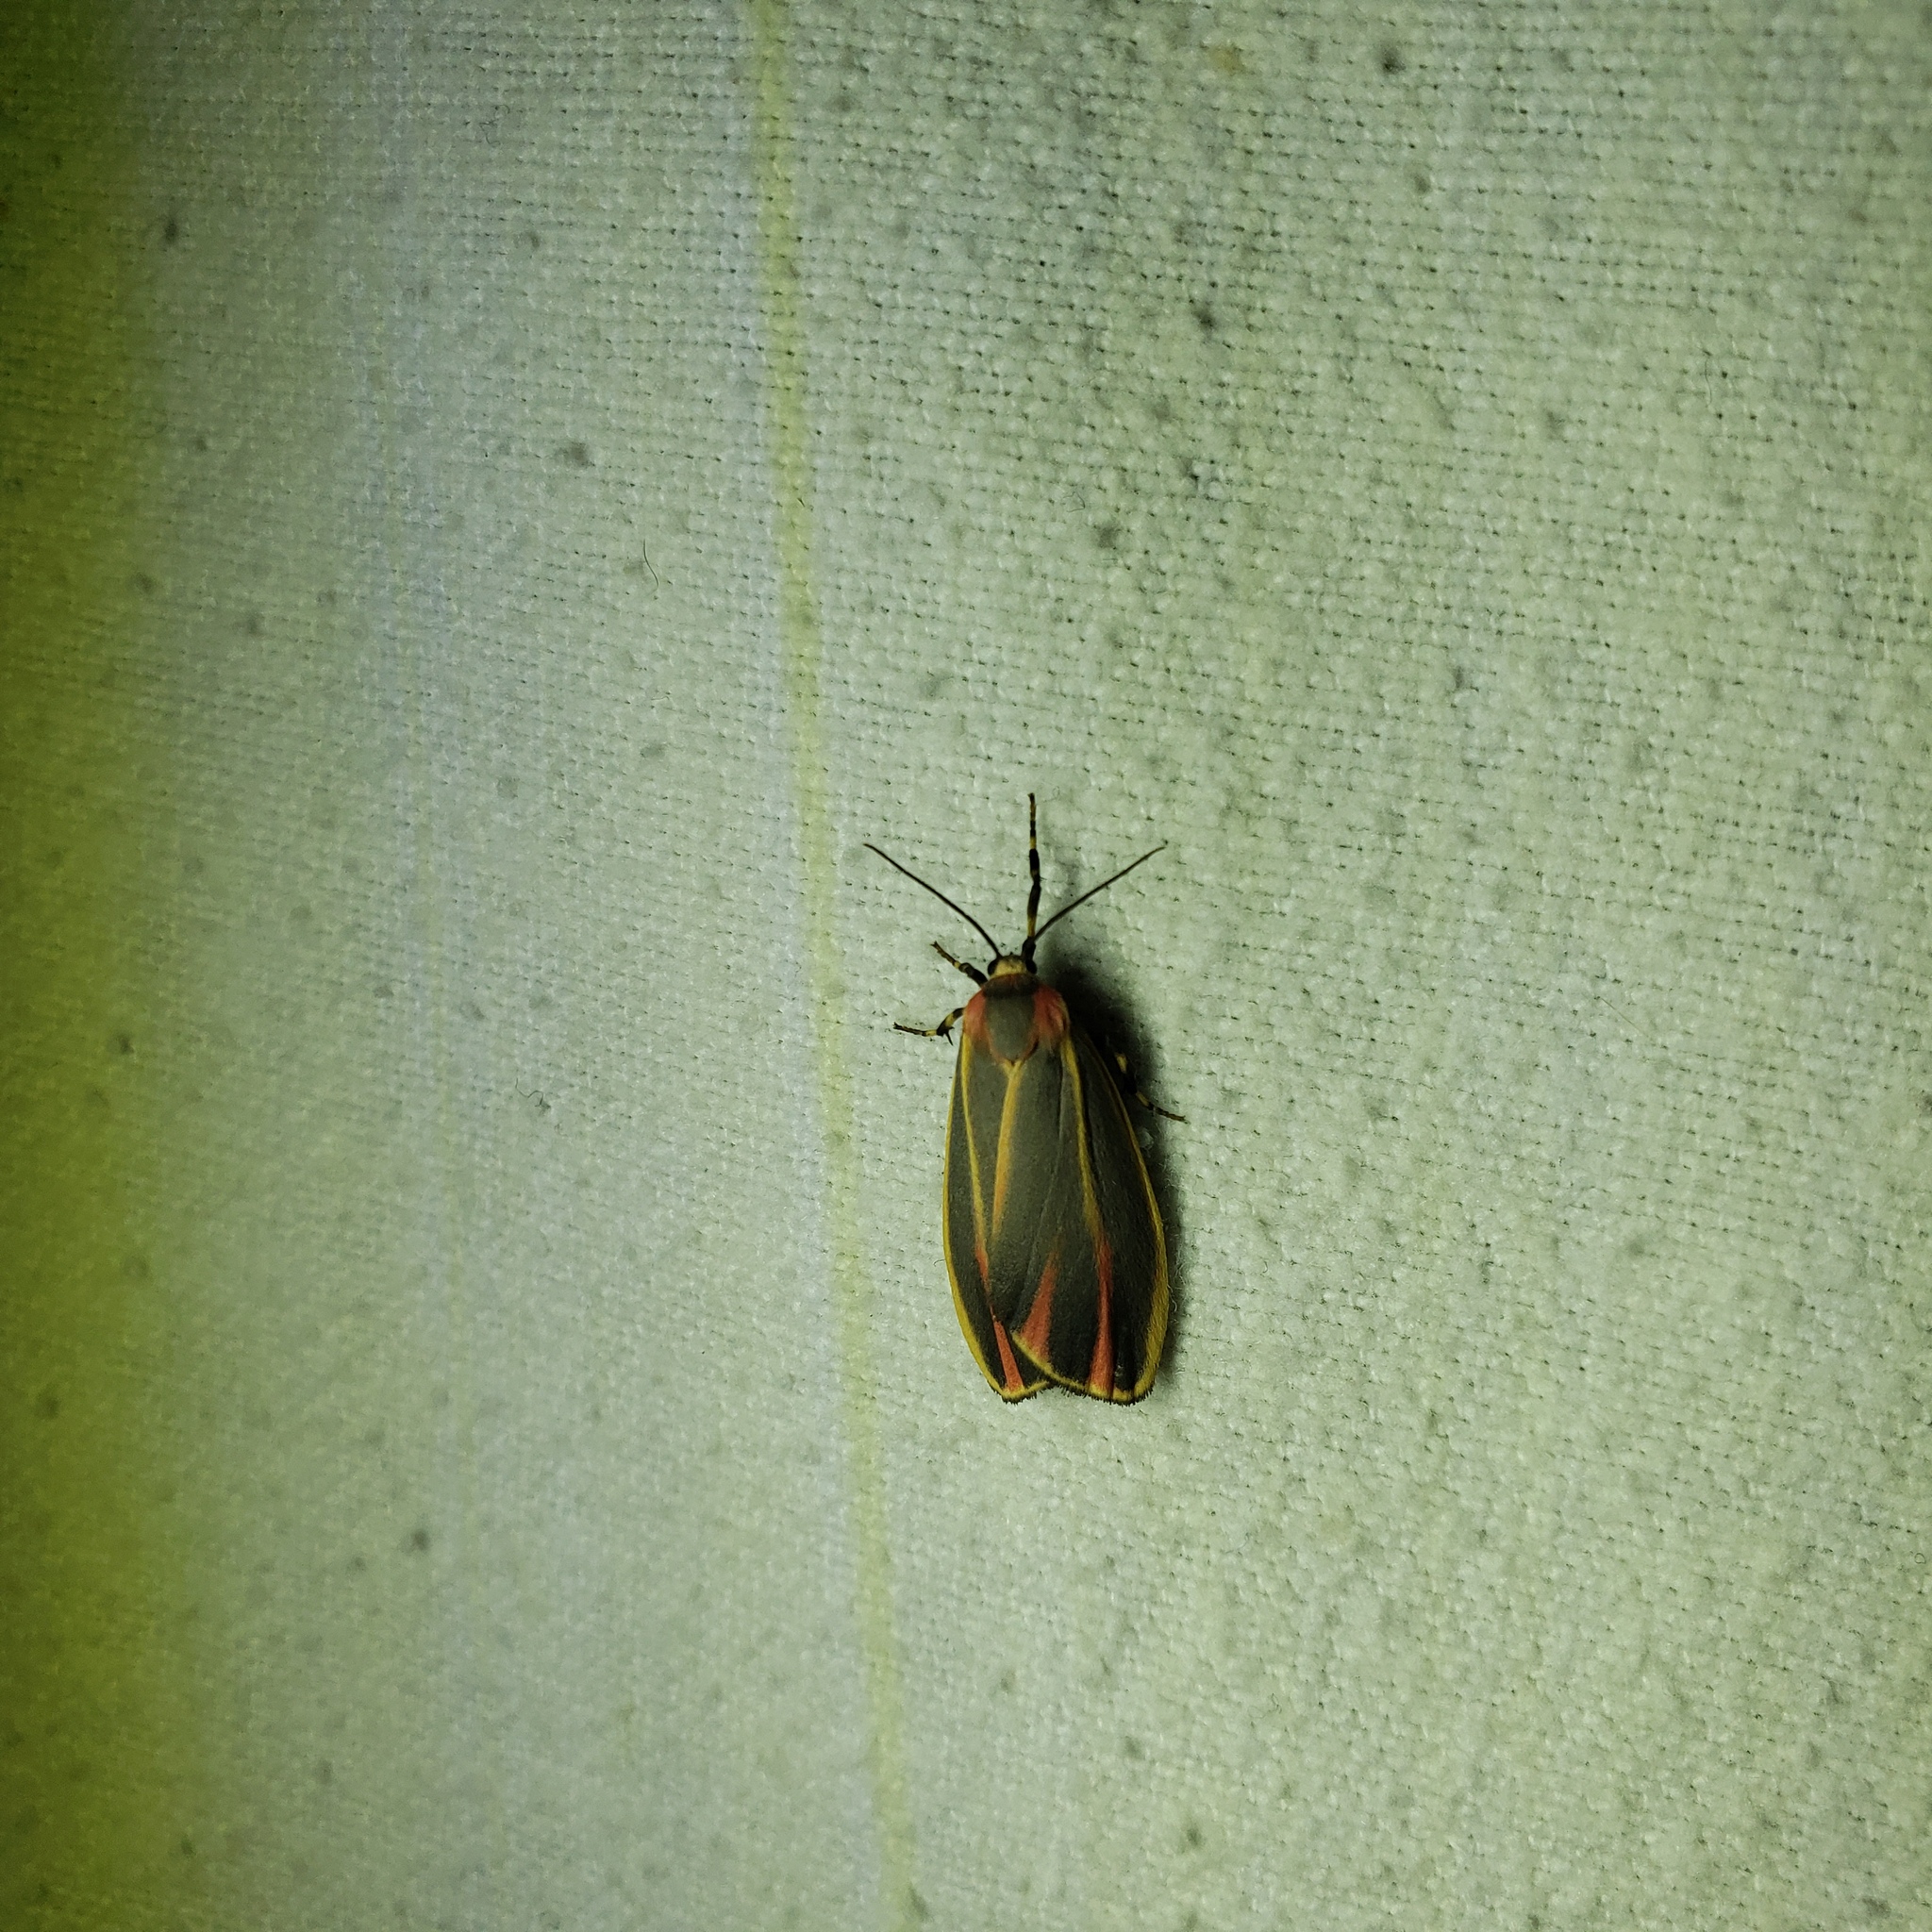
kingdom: Animalia
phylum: Arthropoda
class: Insecta
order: Lepidoptera
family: Erebidae
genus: Hypoprepia
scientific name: Hypoprepia fucosa
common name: Painted lichen moth
